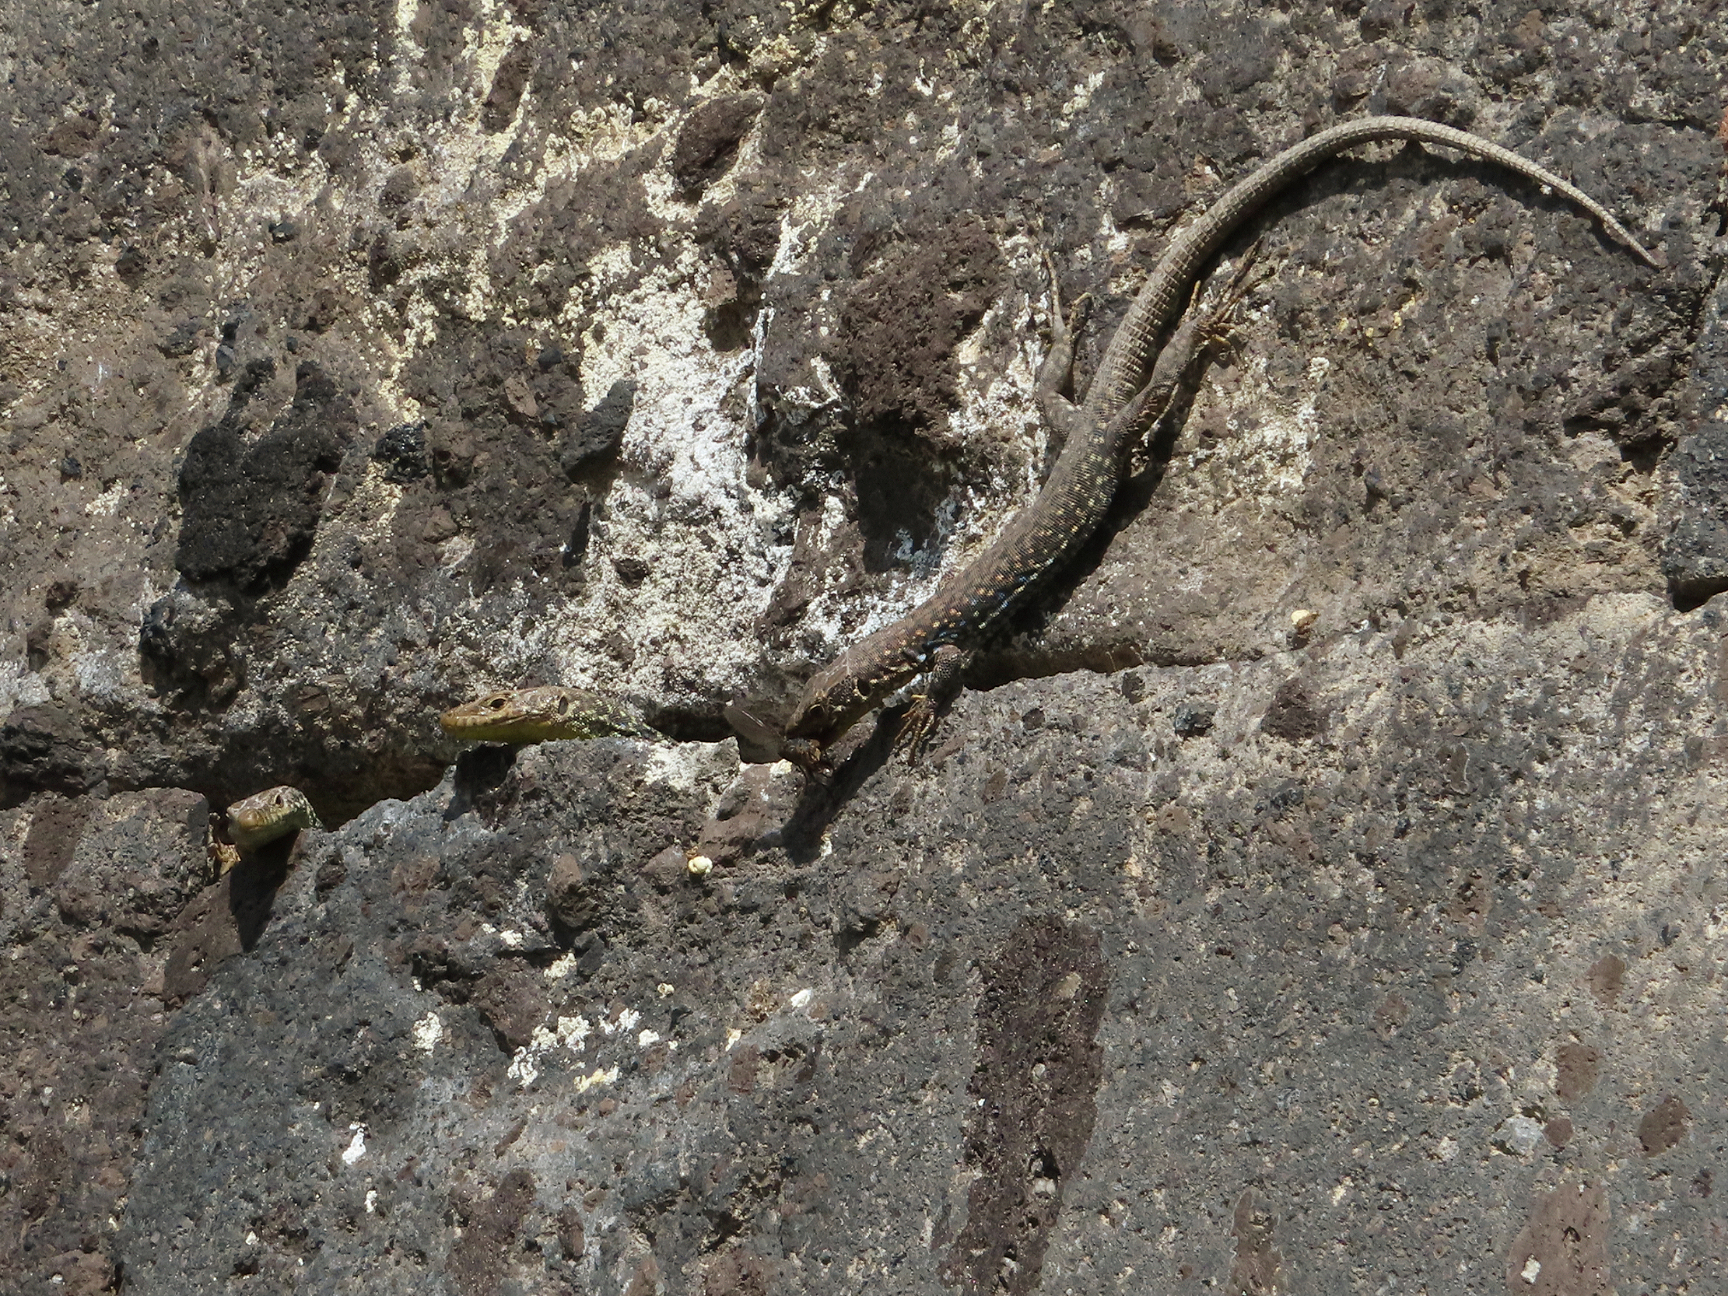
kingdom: Animalia
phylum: Chordata
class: Squamata
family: Lacertidae
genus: Darevskia
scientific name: Darevskia
